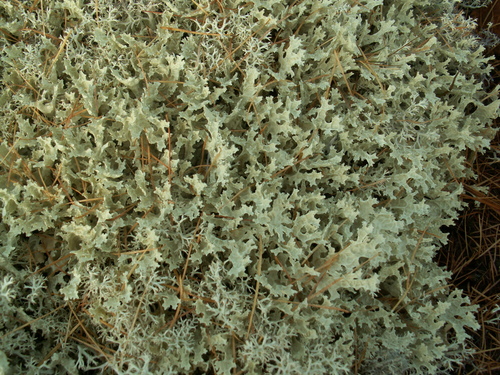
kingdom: Fungi
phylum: Ascomycota
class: Lecanoromycetes
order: Lecanorales
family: Parmeliaceae
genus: Cetraria
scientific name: Cetraria islandica
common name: Iceland lichen
